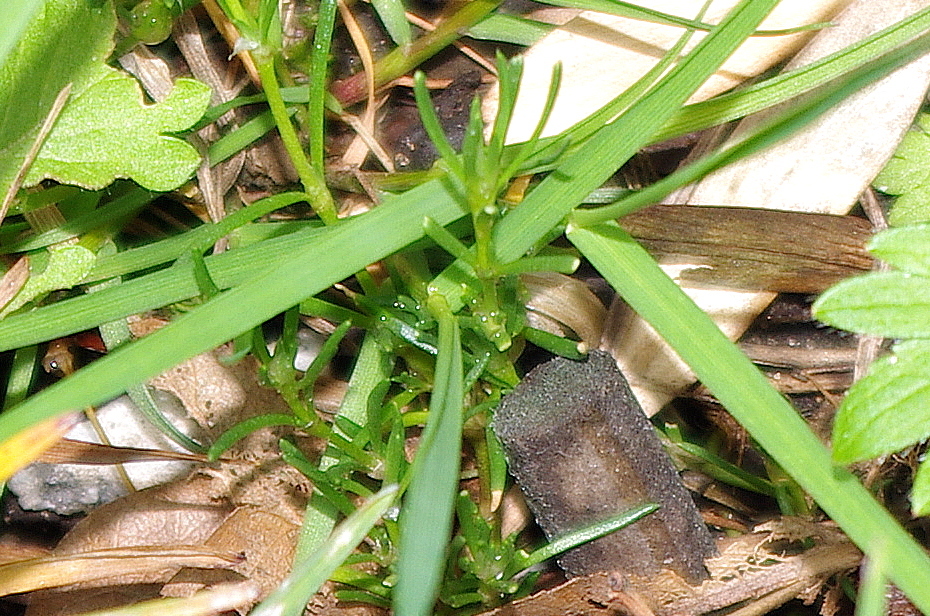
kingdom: Plantae
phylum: Tracheophyta
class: Magnoliopsida
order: Caryophyllales
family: Caryophyllaceae
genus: Spergularia
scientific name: Spergularia rubra
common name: Red sand-spurrey
